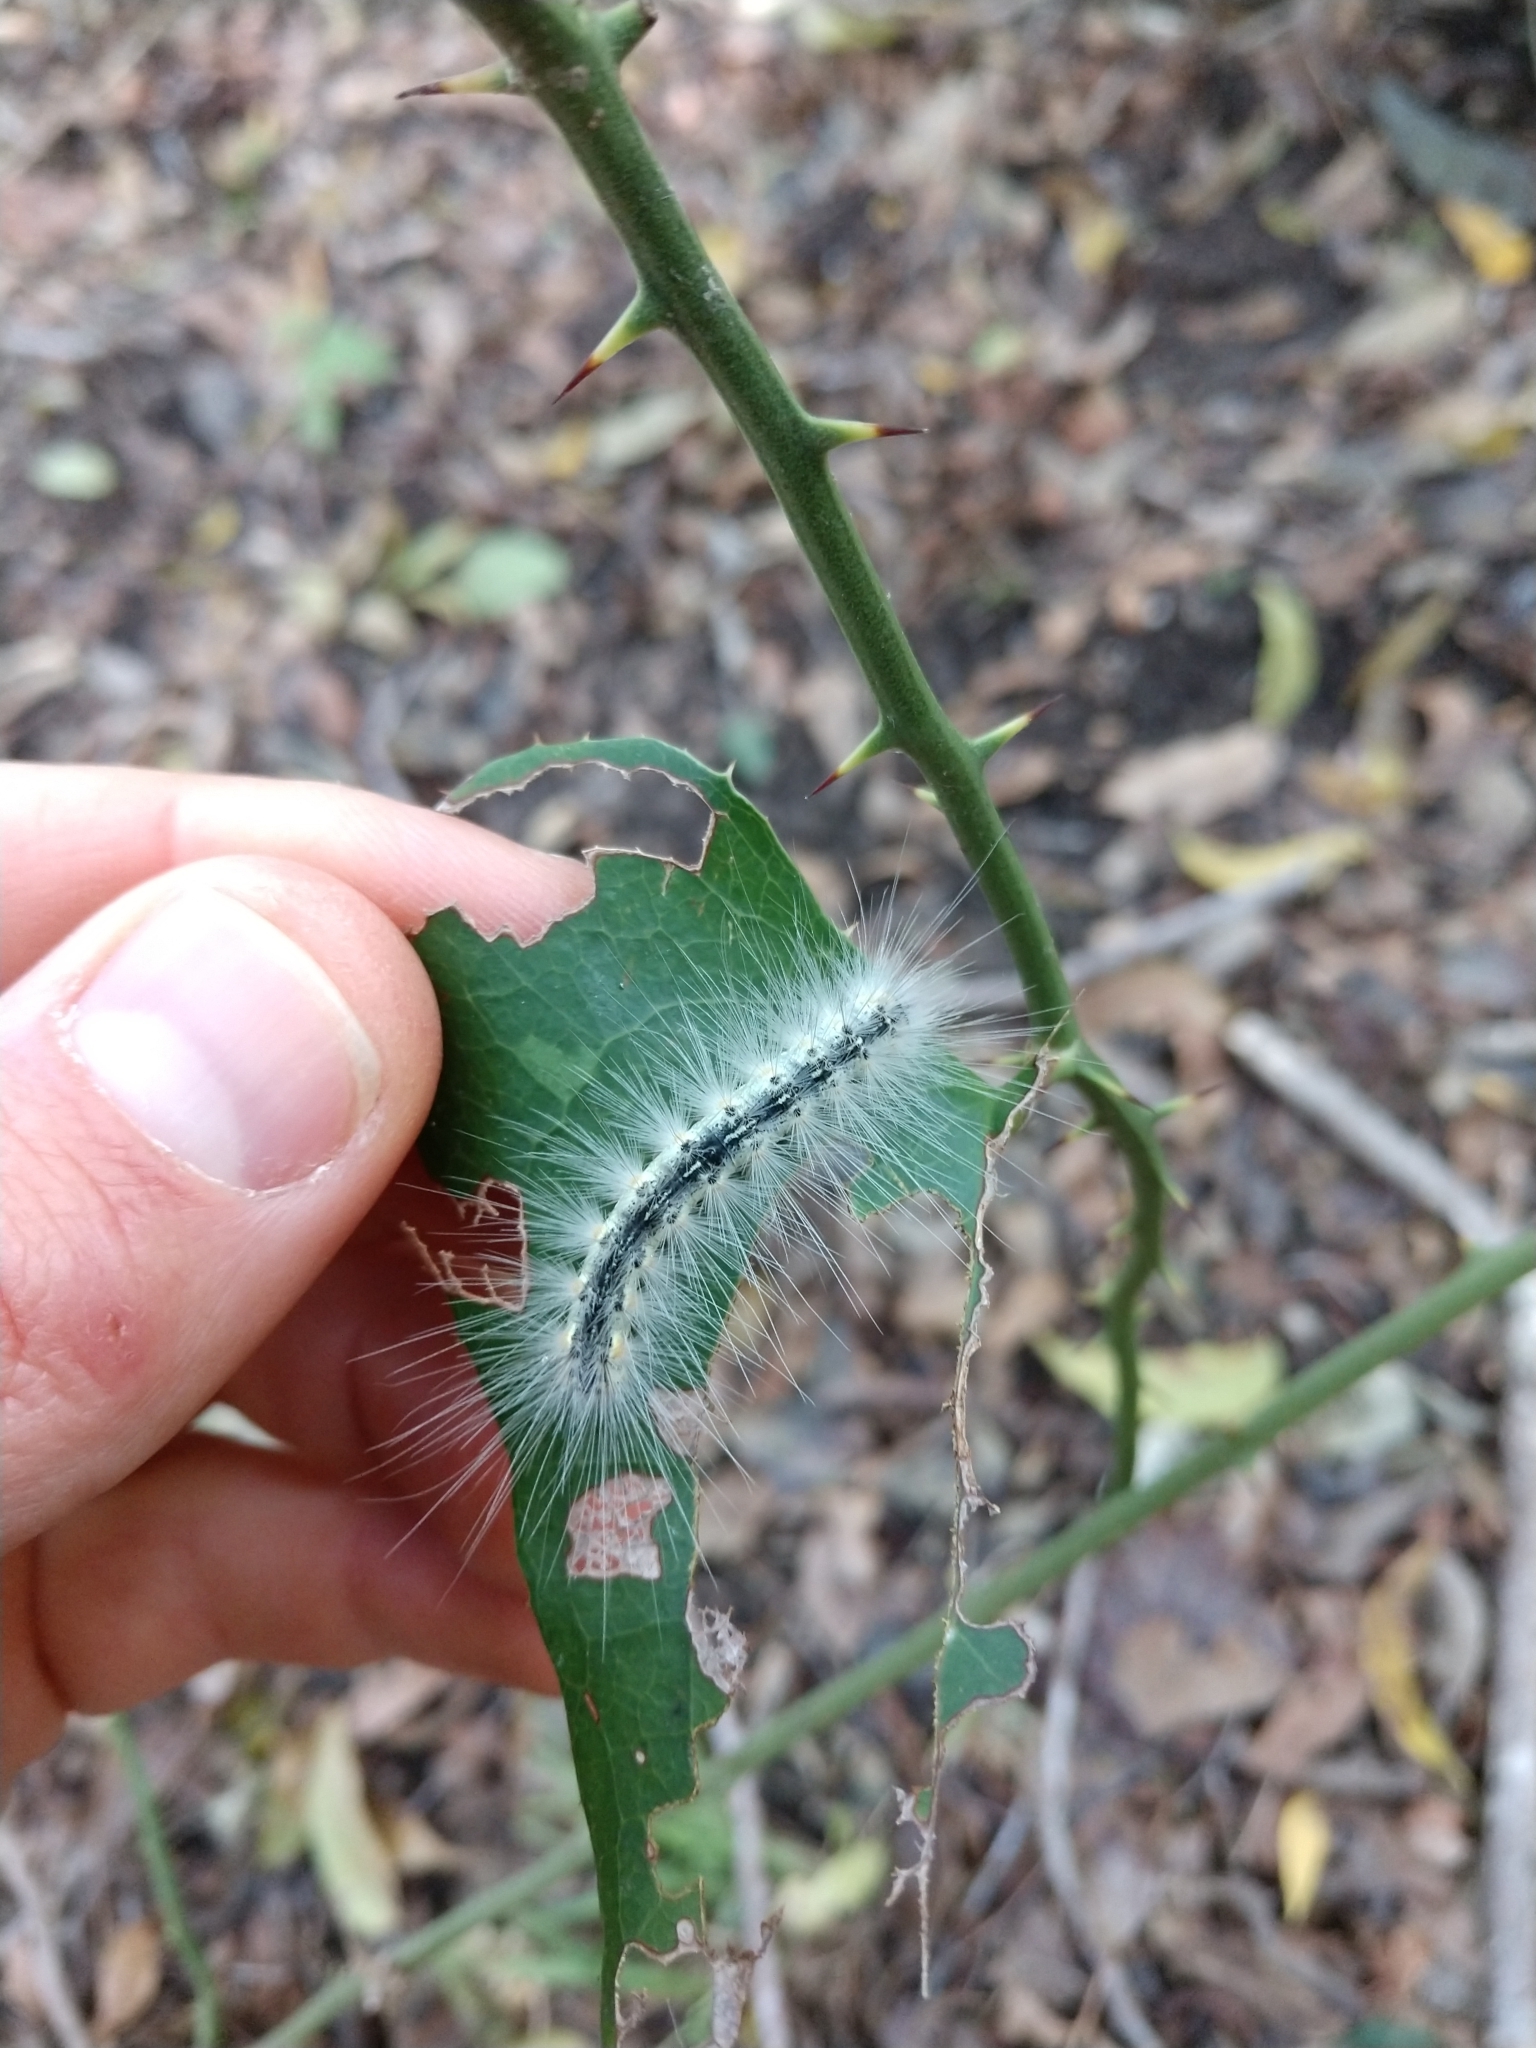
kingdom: Animalia
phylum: Arthropoda
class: Insecta
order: Lepidoptera
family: Erebidae
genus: Hyphantria
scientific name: Hyphantria cunea
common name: American white moth
